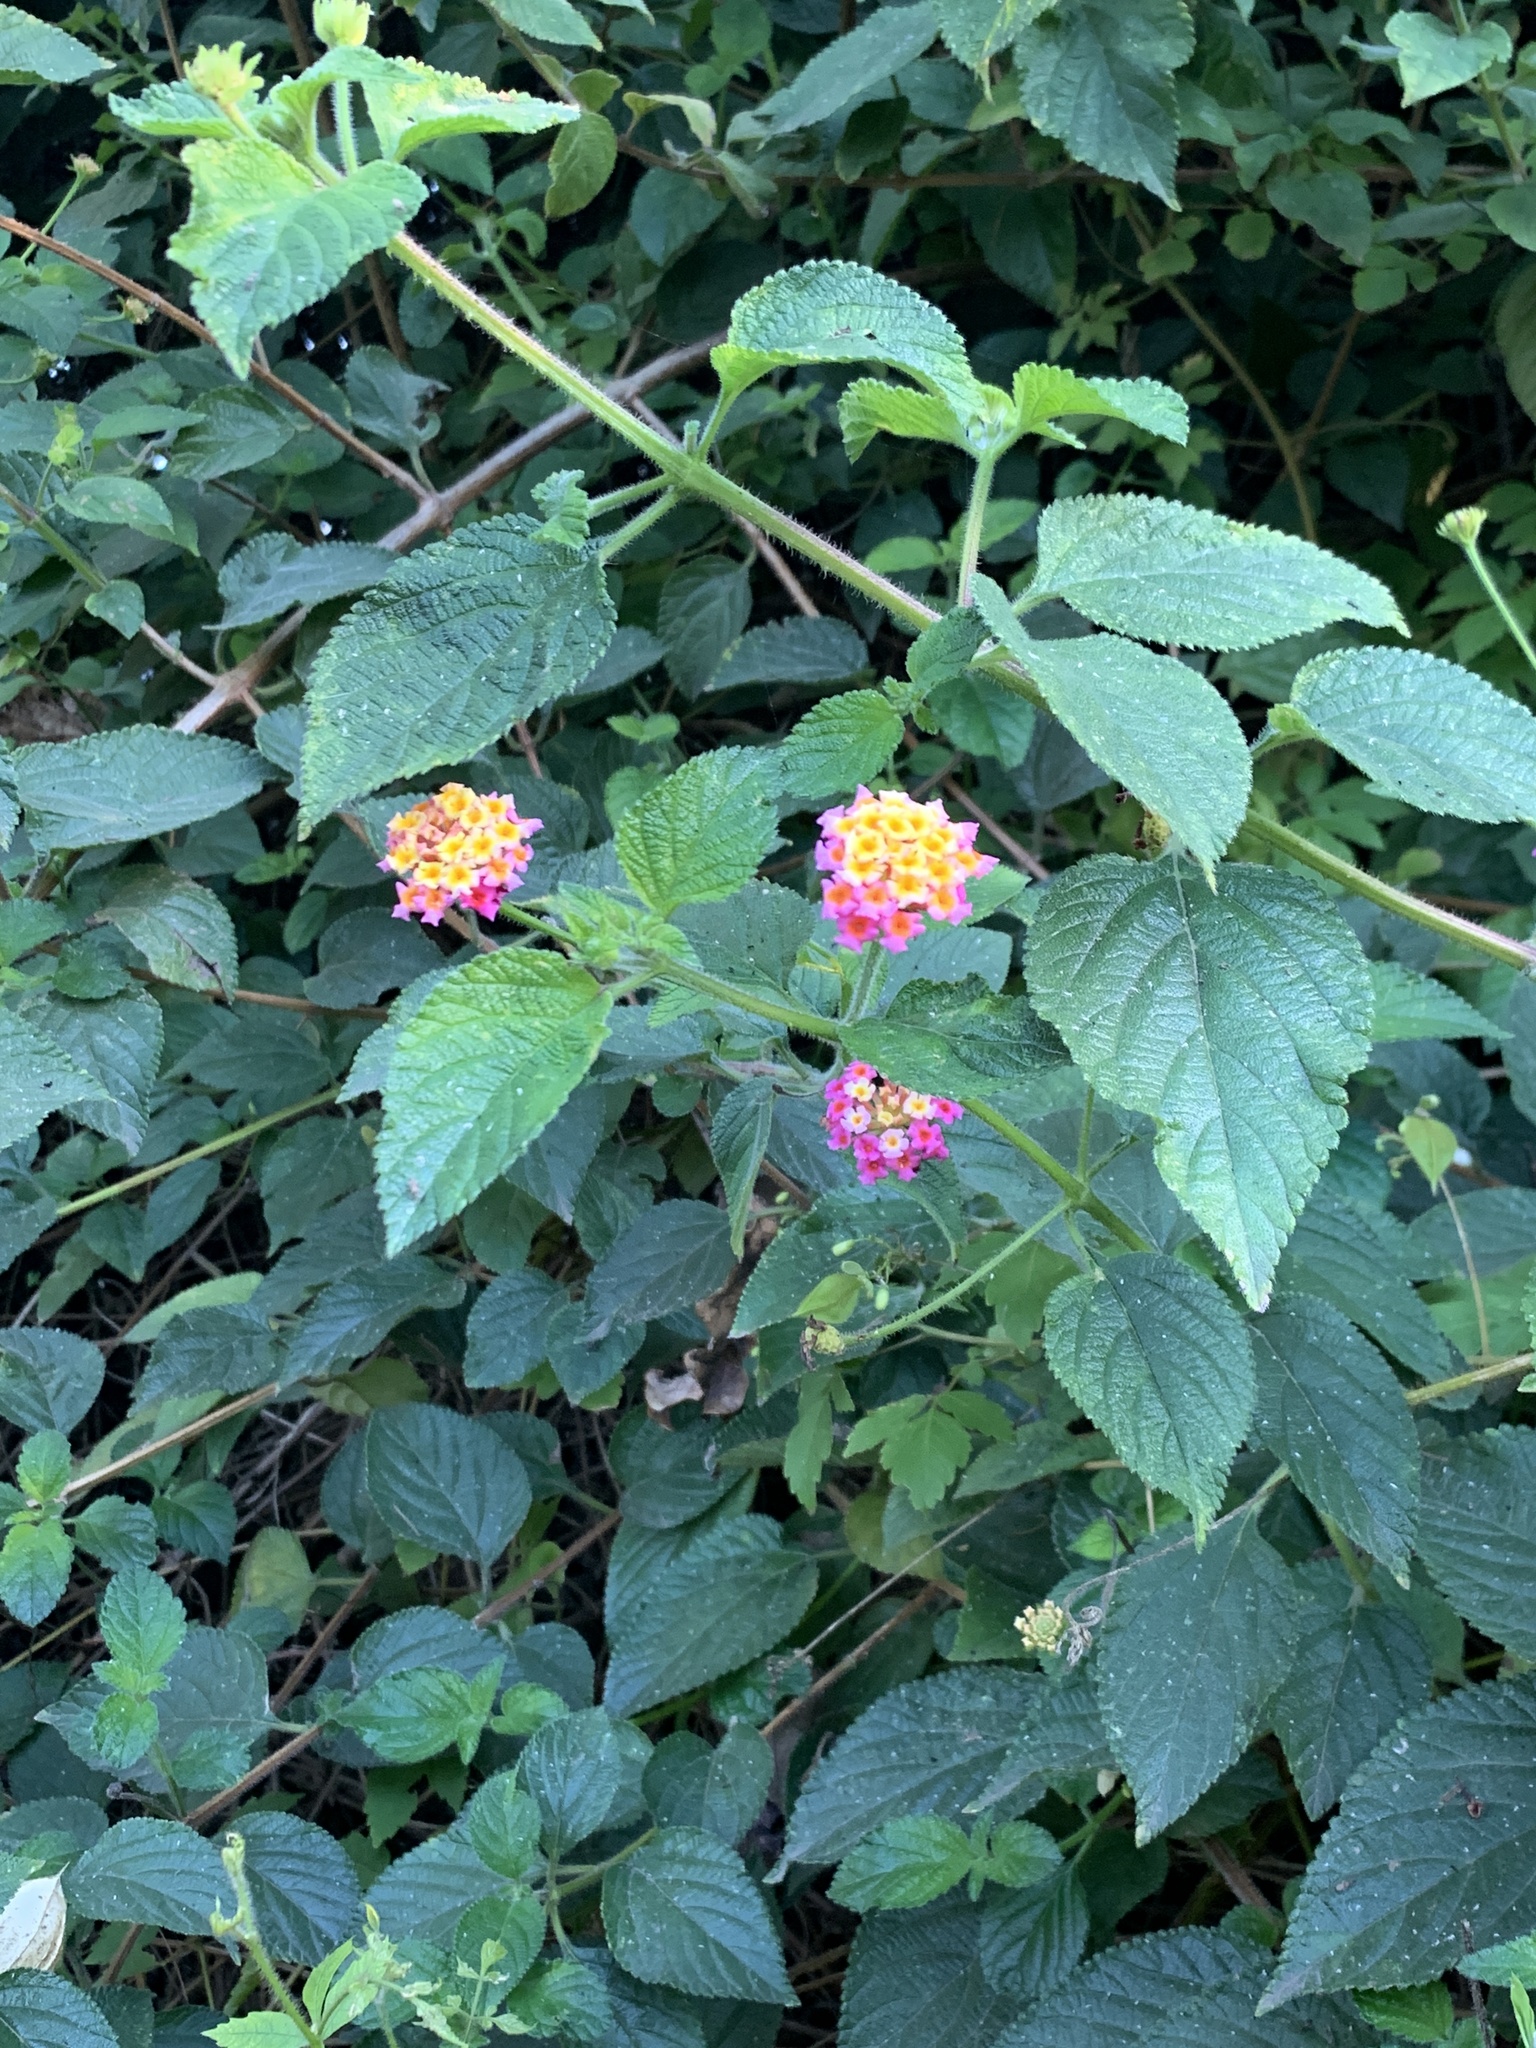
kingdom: Plantae
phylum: Tracheophyta
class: Magnoliopsida
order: Lamiales
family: Verbenaceae
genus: Lantana
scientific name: Lantana camara
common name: Lantana
